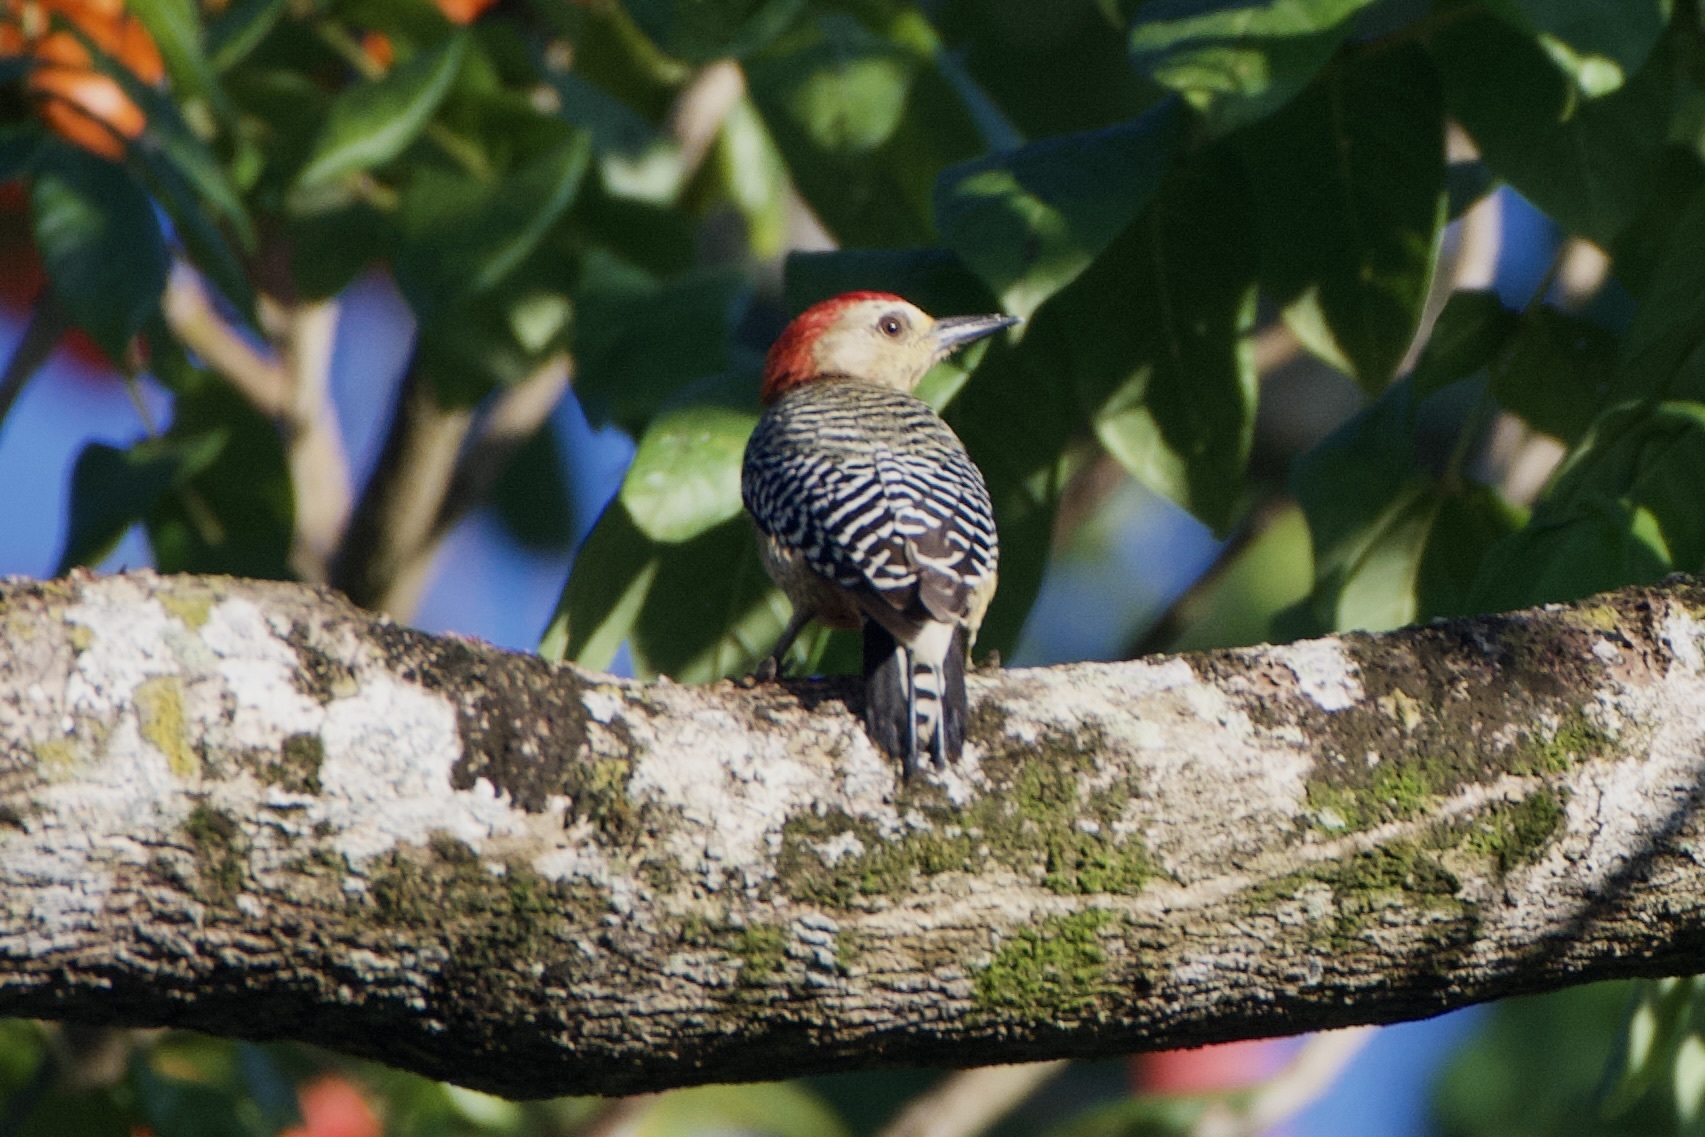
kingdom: Animalia
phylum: Chordata
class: Aves
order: Piciformes
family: Picidae
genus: Melanerpes
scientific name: Melanerpes rubricapillus
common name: Red-crowned woodpecker
